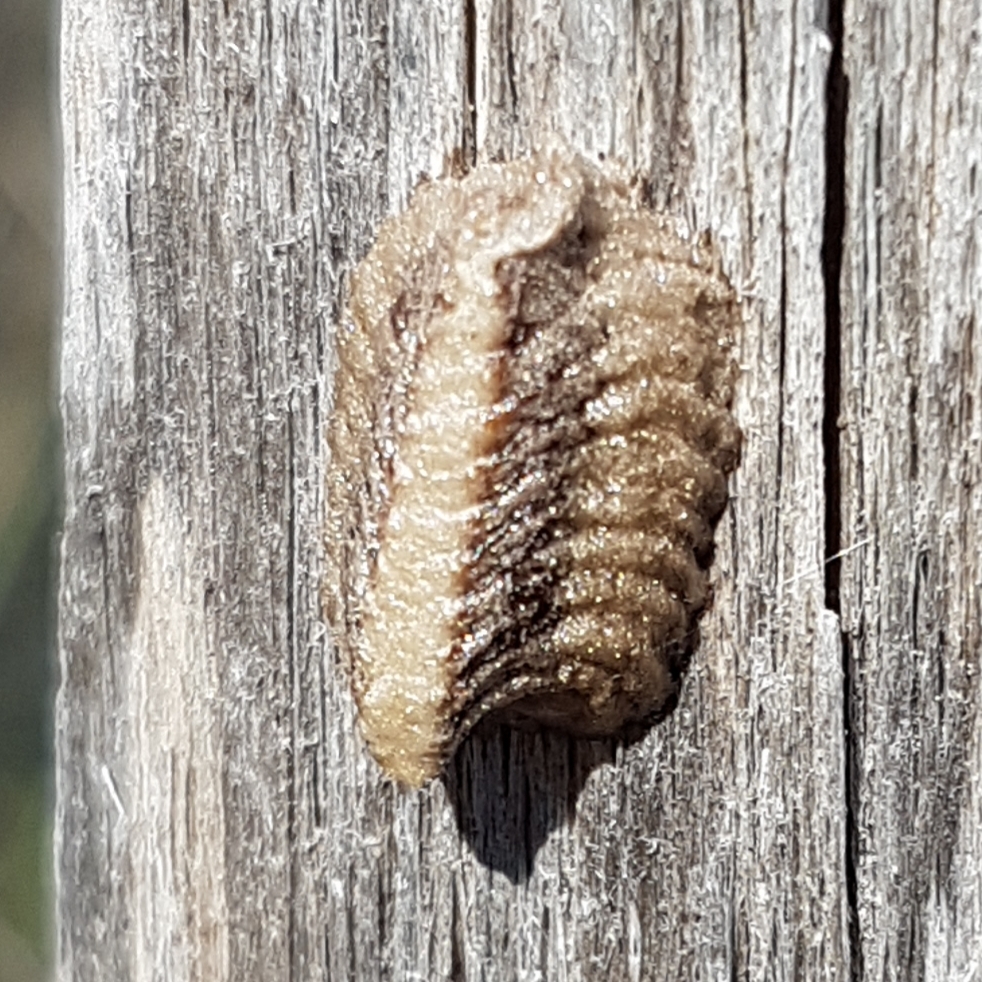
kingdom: Animalia
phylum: Arthropoda
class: Insecta
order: Mantodea
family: Eremiaphilidae
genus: Iris
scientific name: Iris oratoria
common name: Mediterranean mantis
